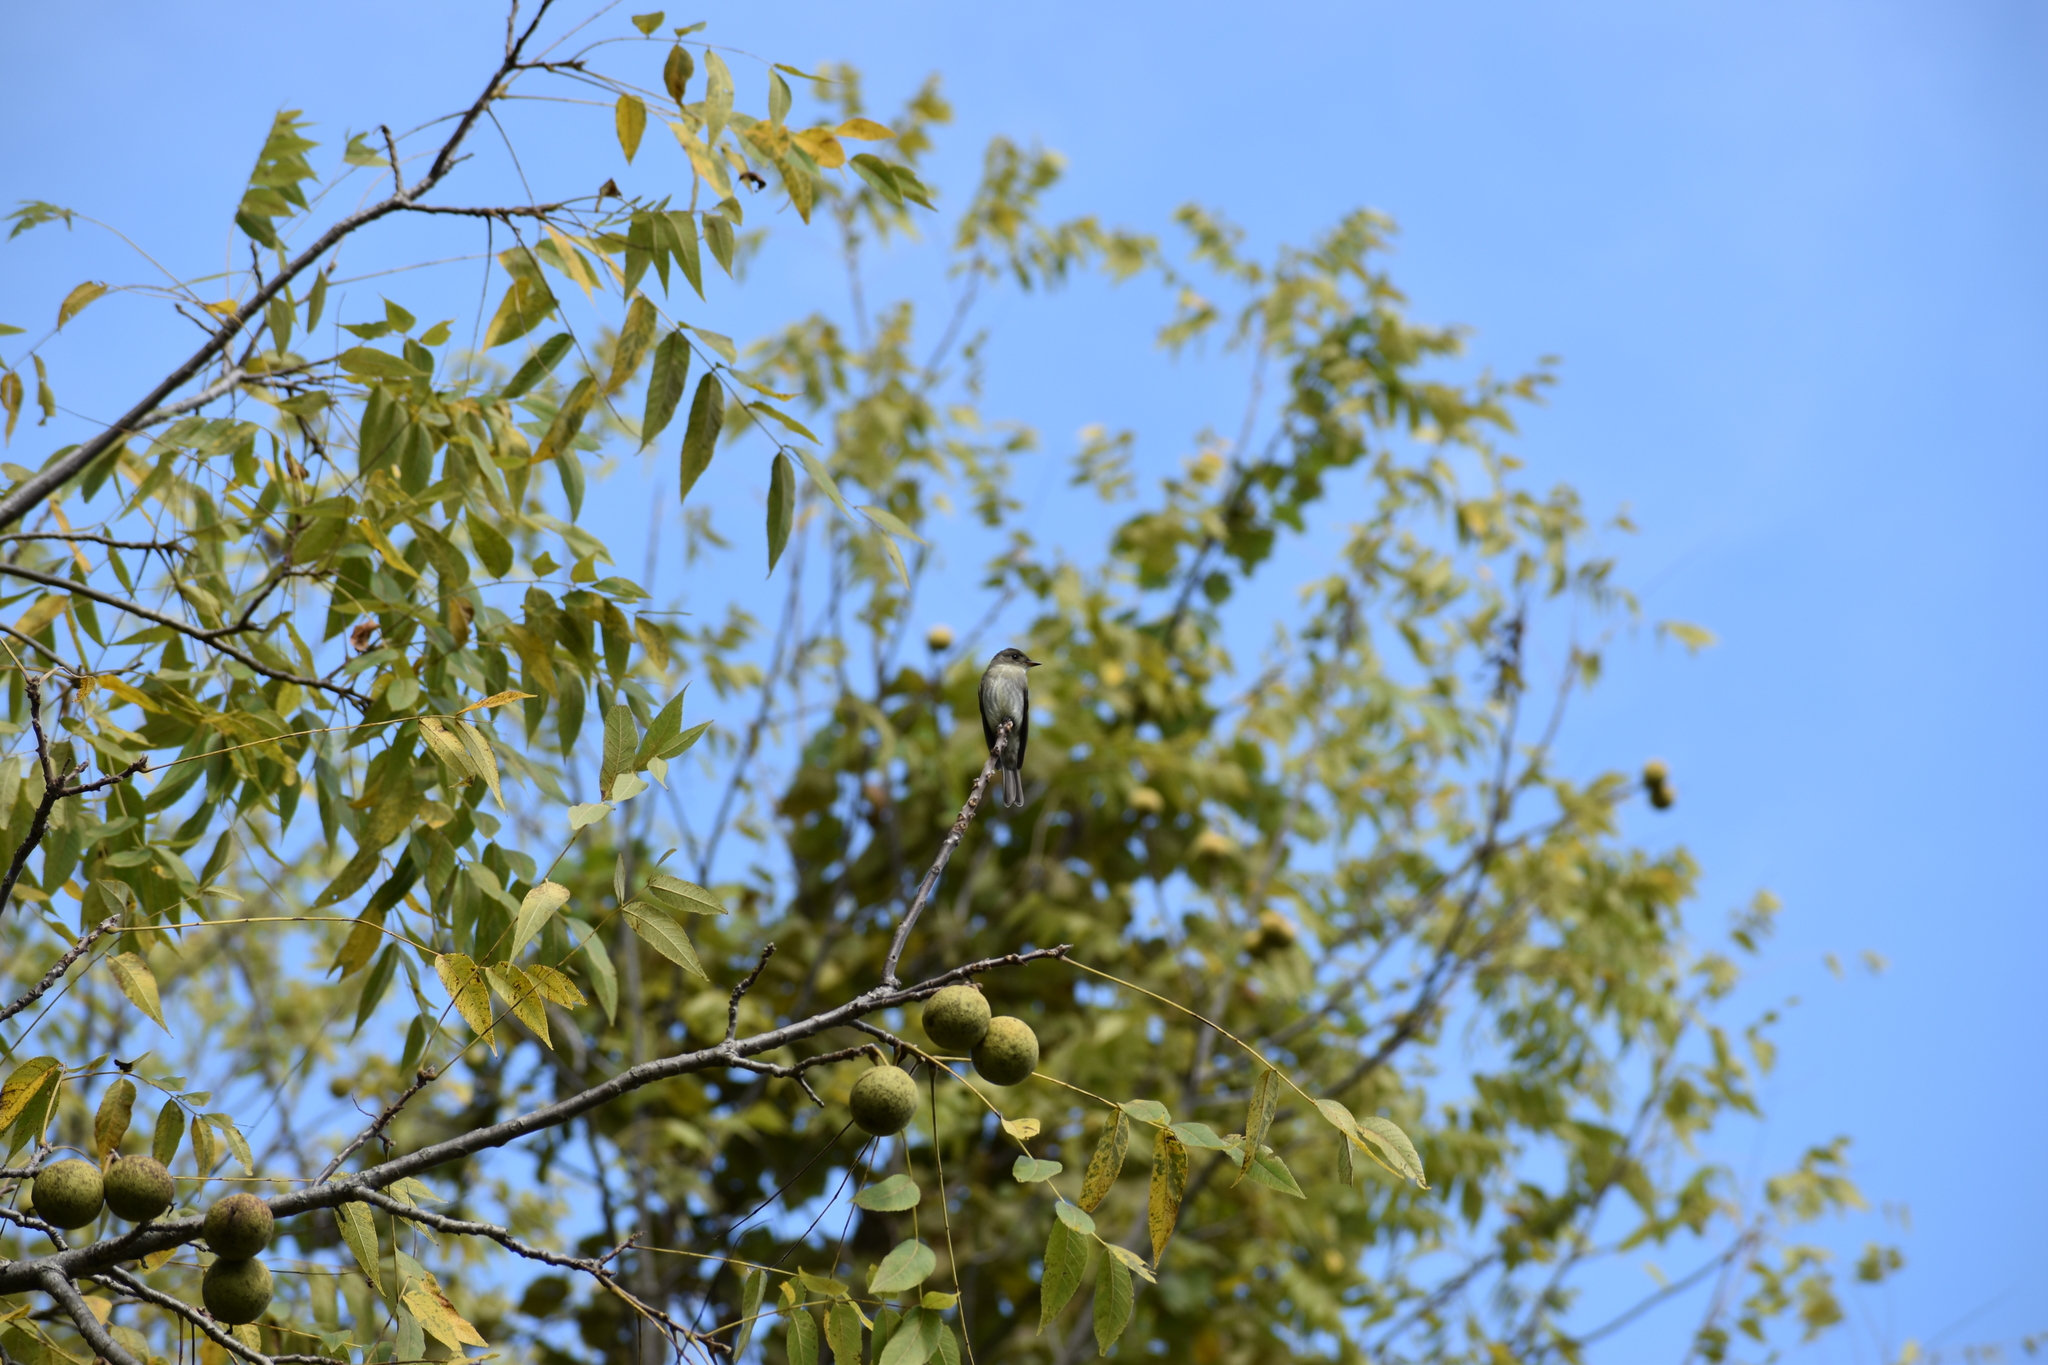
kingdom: Animalia
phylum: Chordata
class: Aves
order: Passeriformes
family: Tyrannidae
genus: Contopus
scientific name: Contopus virens
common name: Eastern wood-pewee
